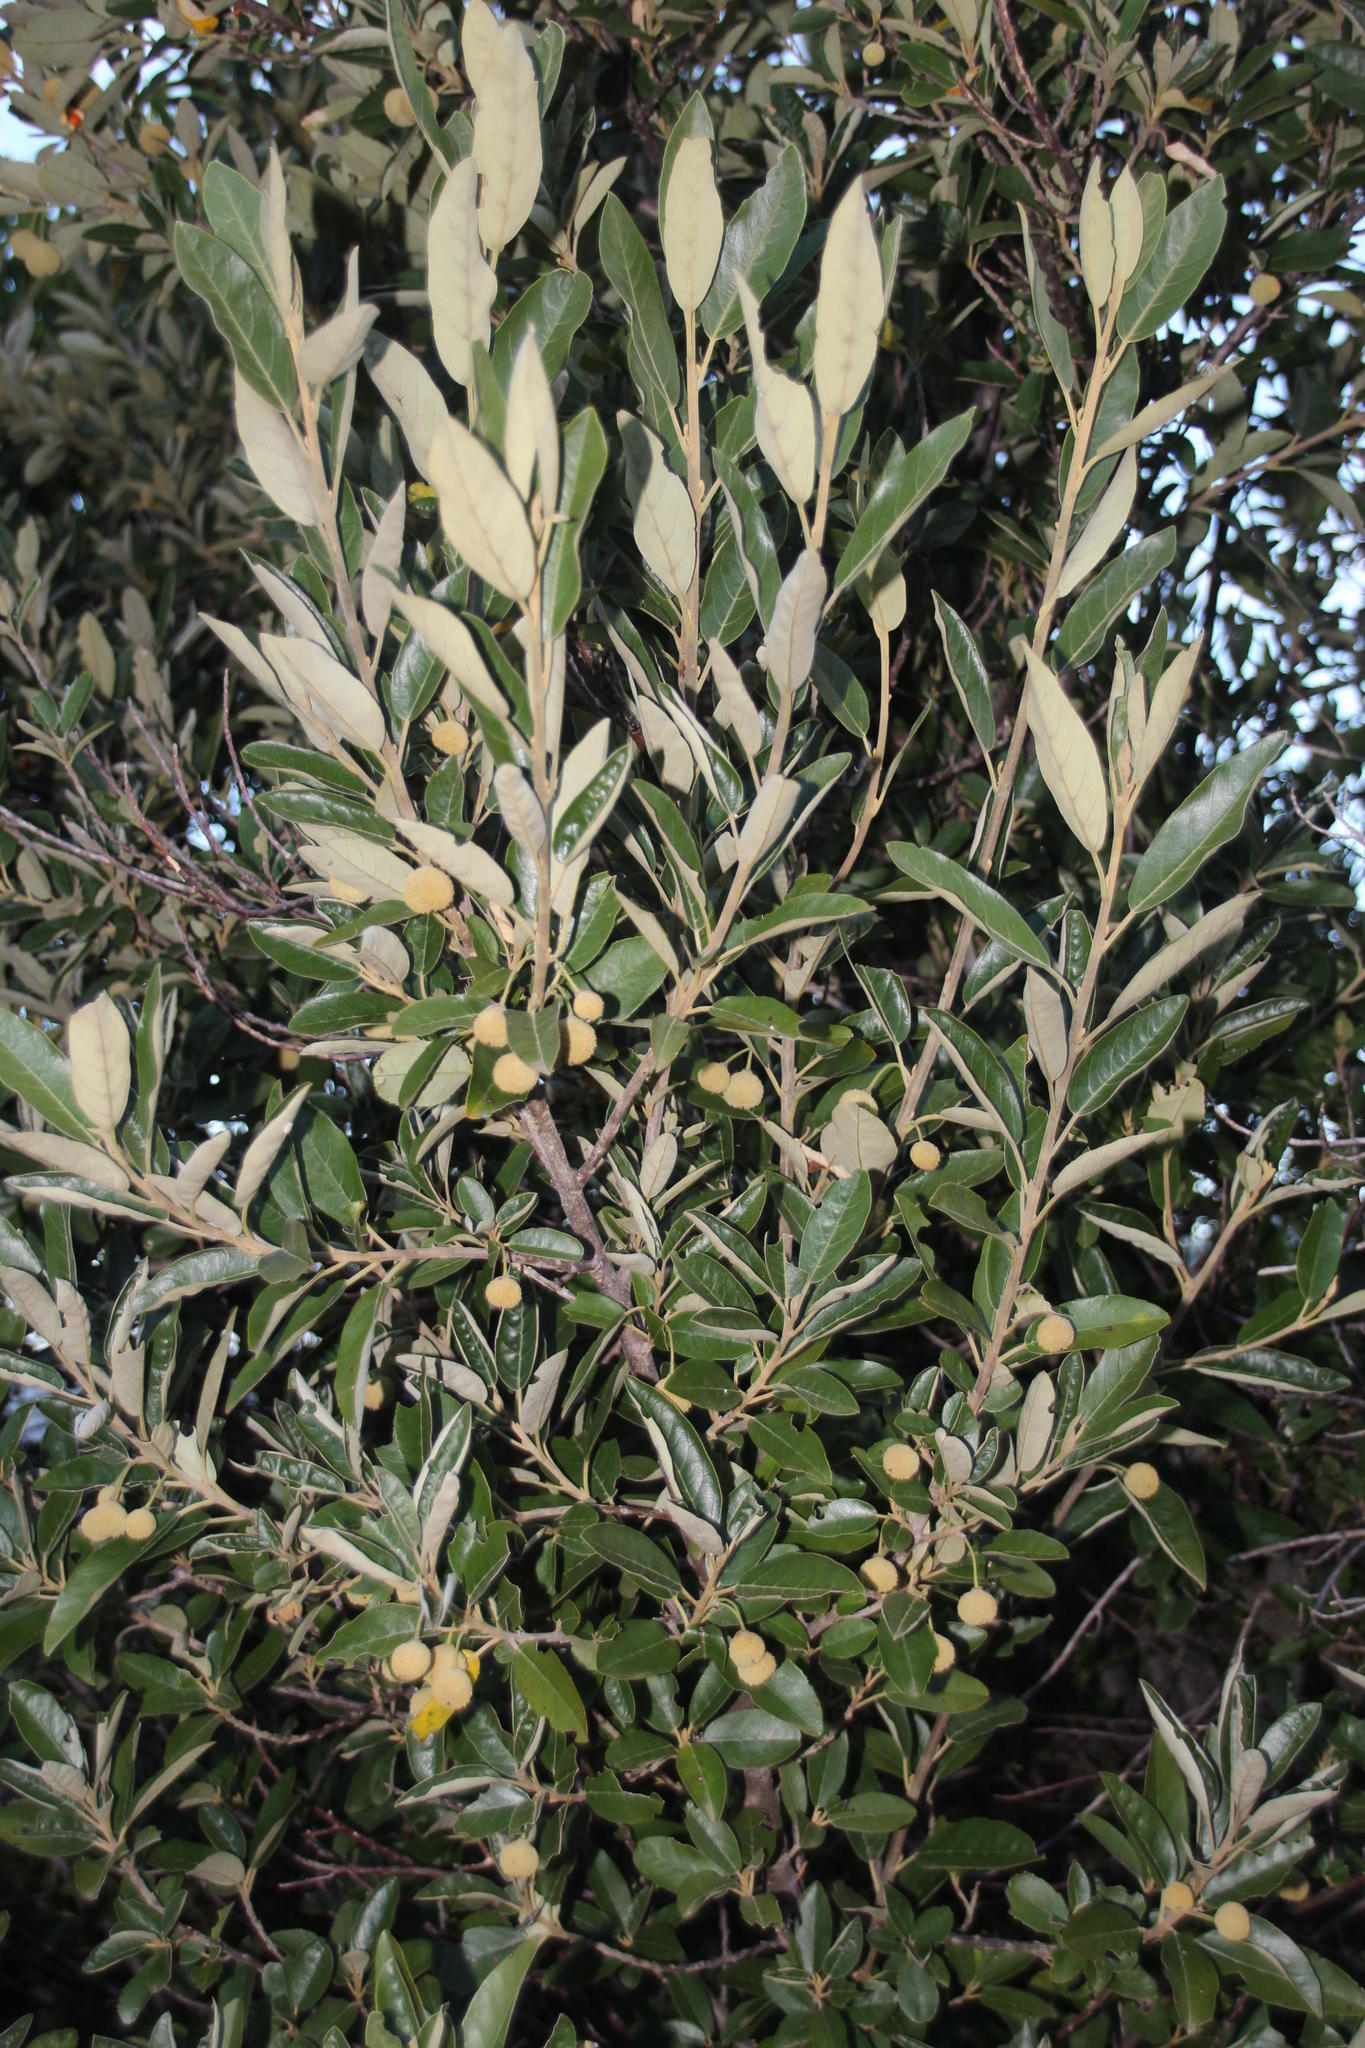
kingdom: Plantae
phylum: Tracheophyta
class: Magnoliopsida
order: Malpighiales
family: Achariaceae
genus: Kiggelaria
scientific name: Kiggelaria africana
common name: Wild peach
